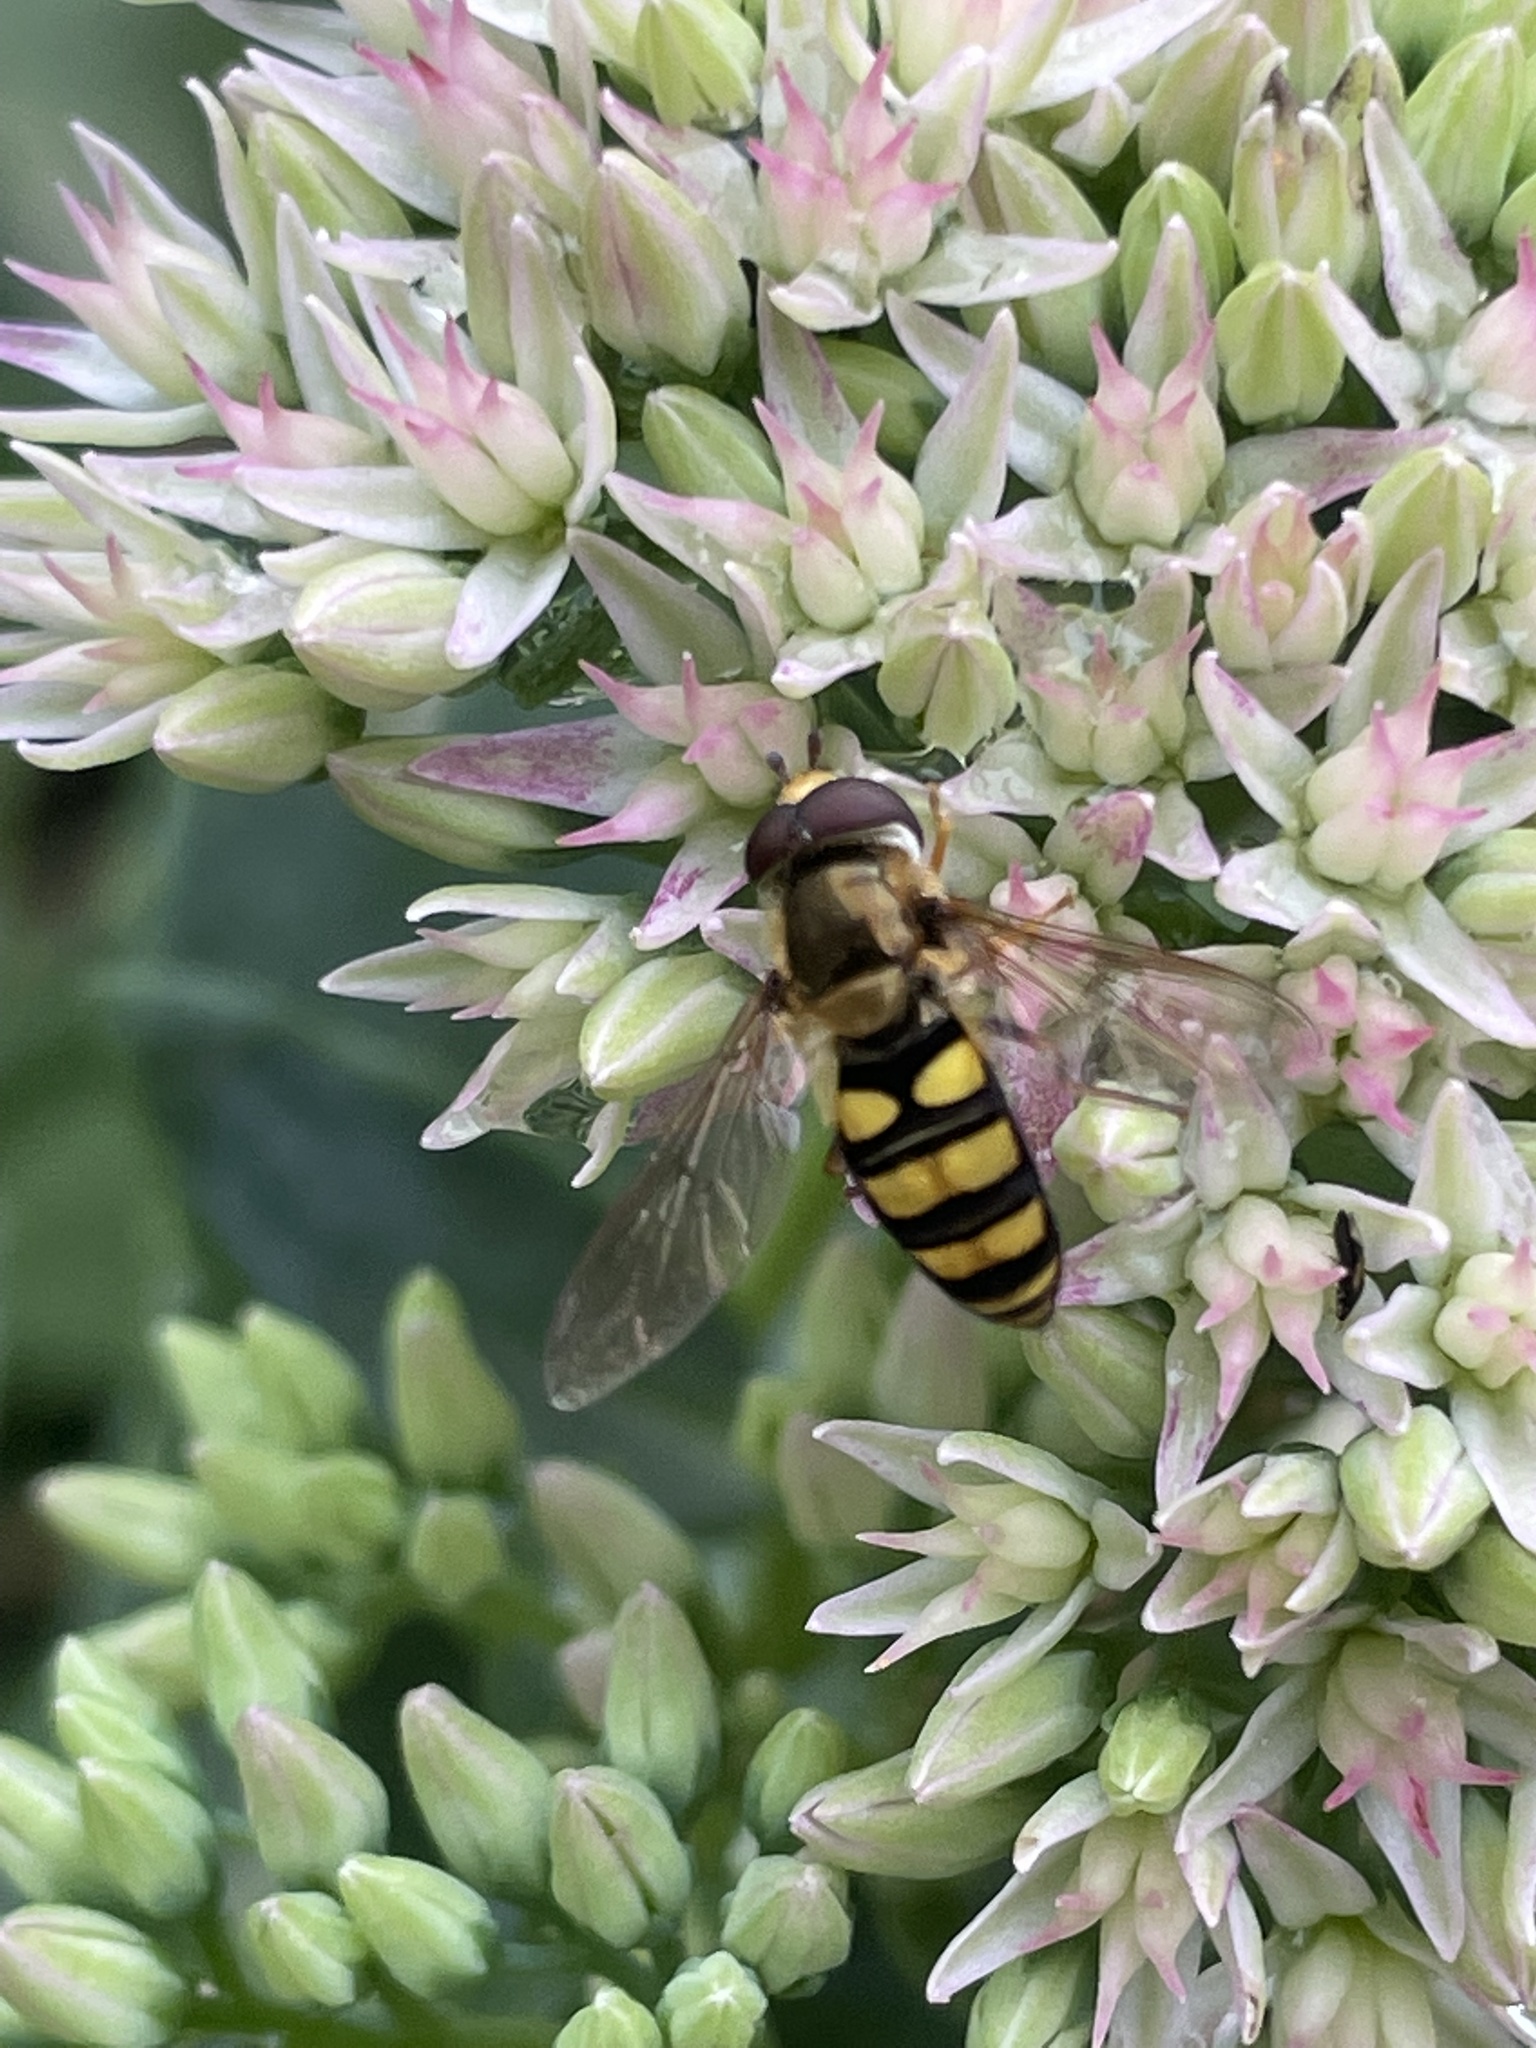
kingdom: Animalia
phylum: Arthropoda
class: Insecta
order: Diptera
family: Syrphidae
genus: Eupeodes
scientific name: Eupeodes
